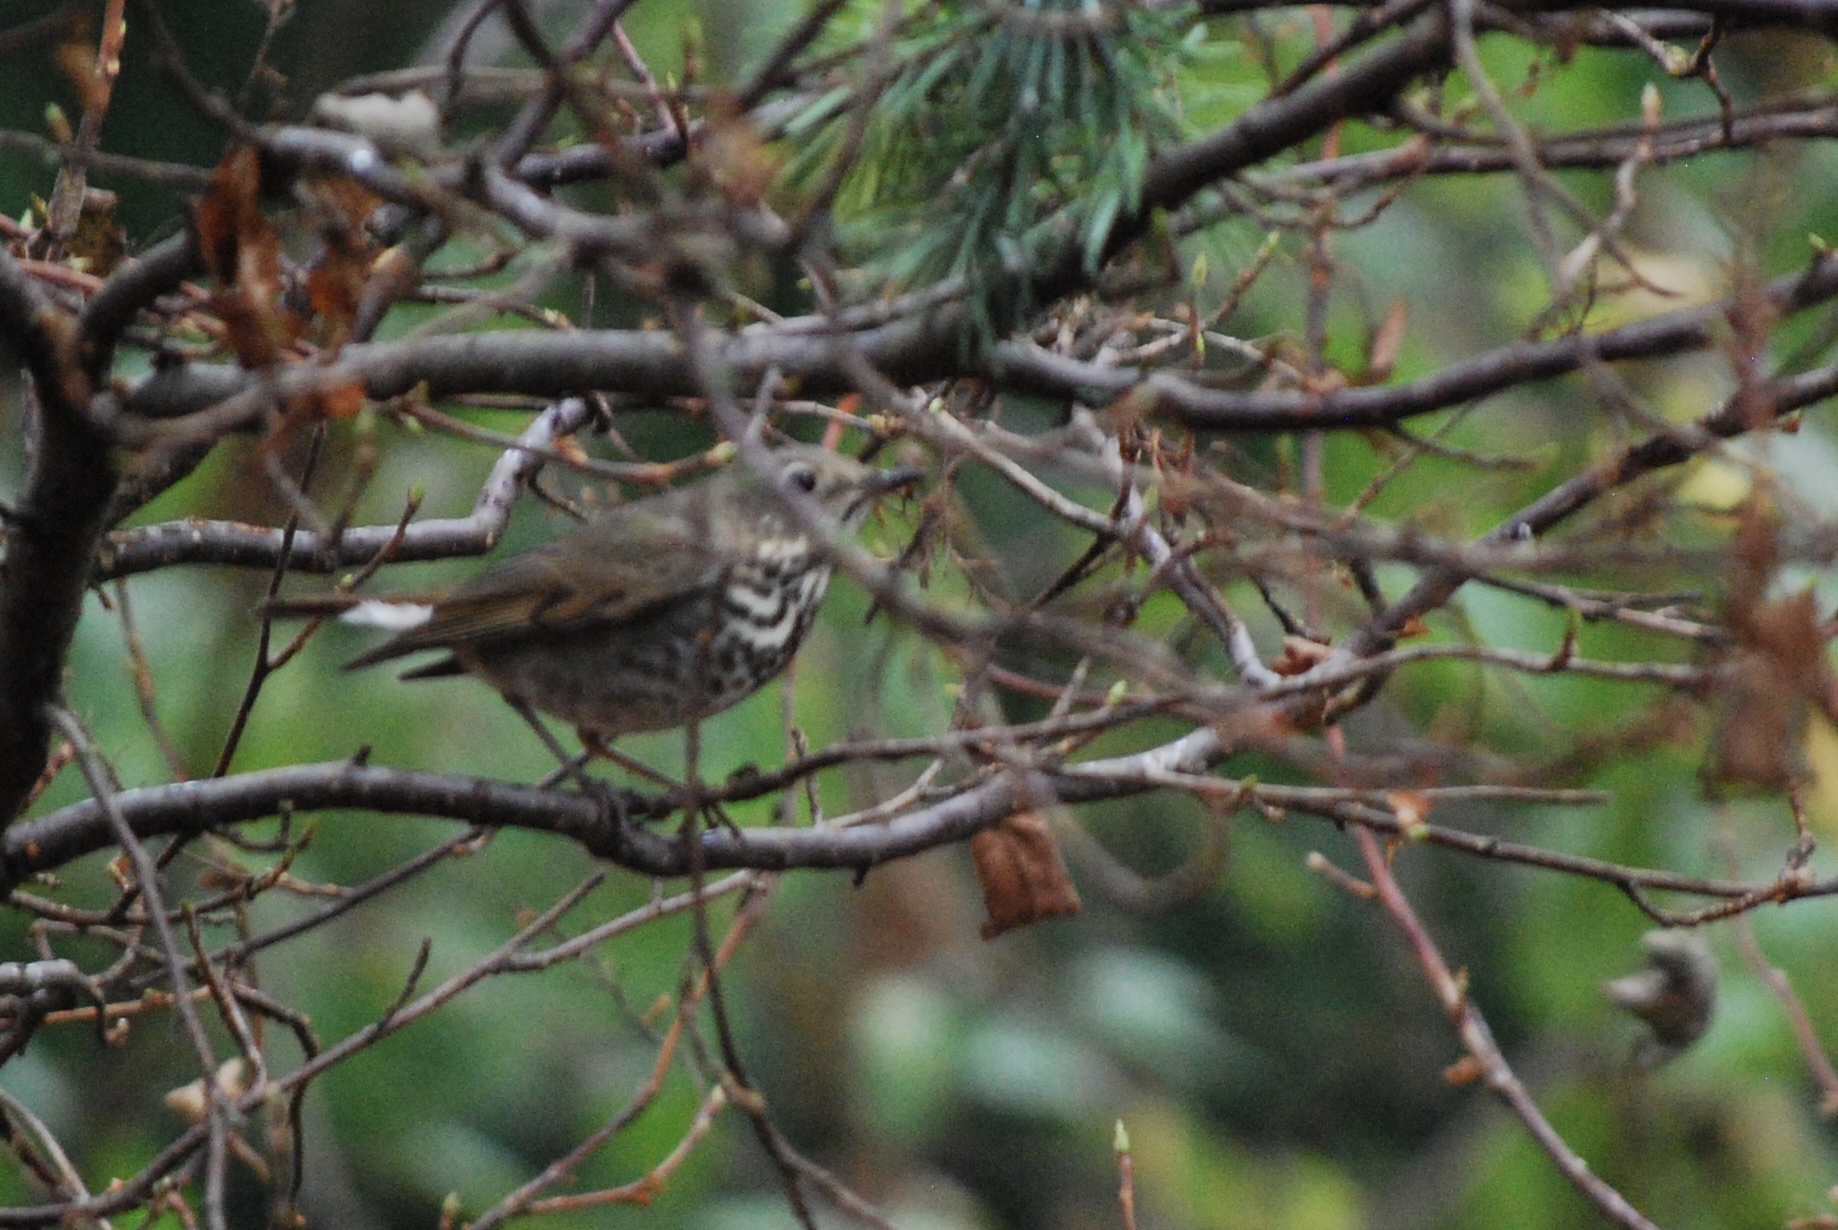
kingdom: Animalia
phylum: Chordata
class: Aves
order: Passeriformes
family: Turdidae
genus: Catharus
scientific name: Catharus guttatus
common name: Hermit thrush
